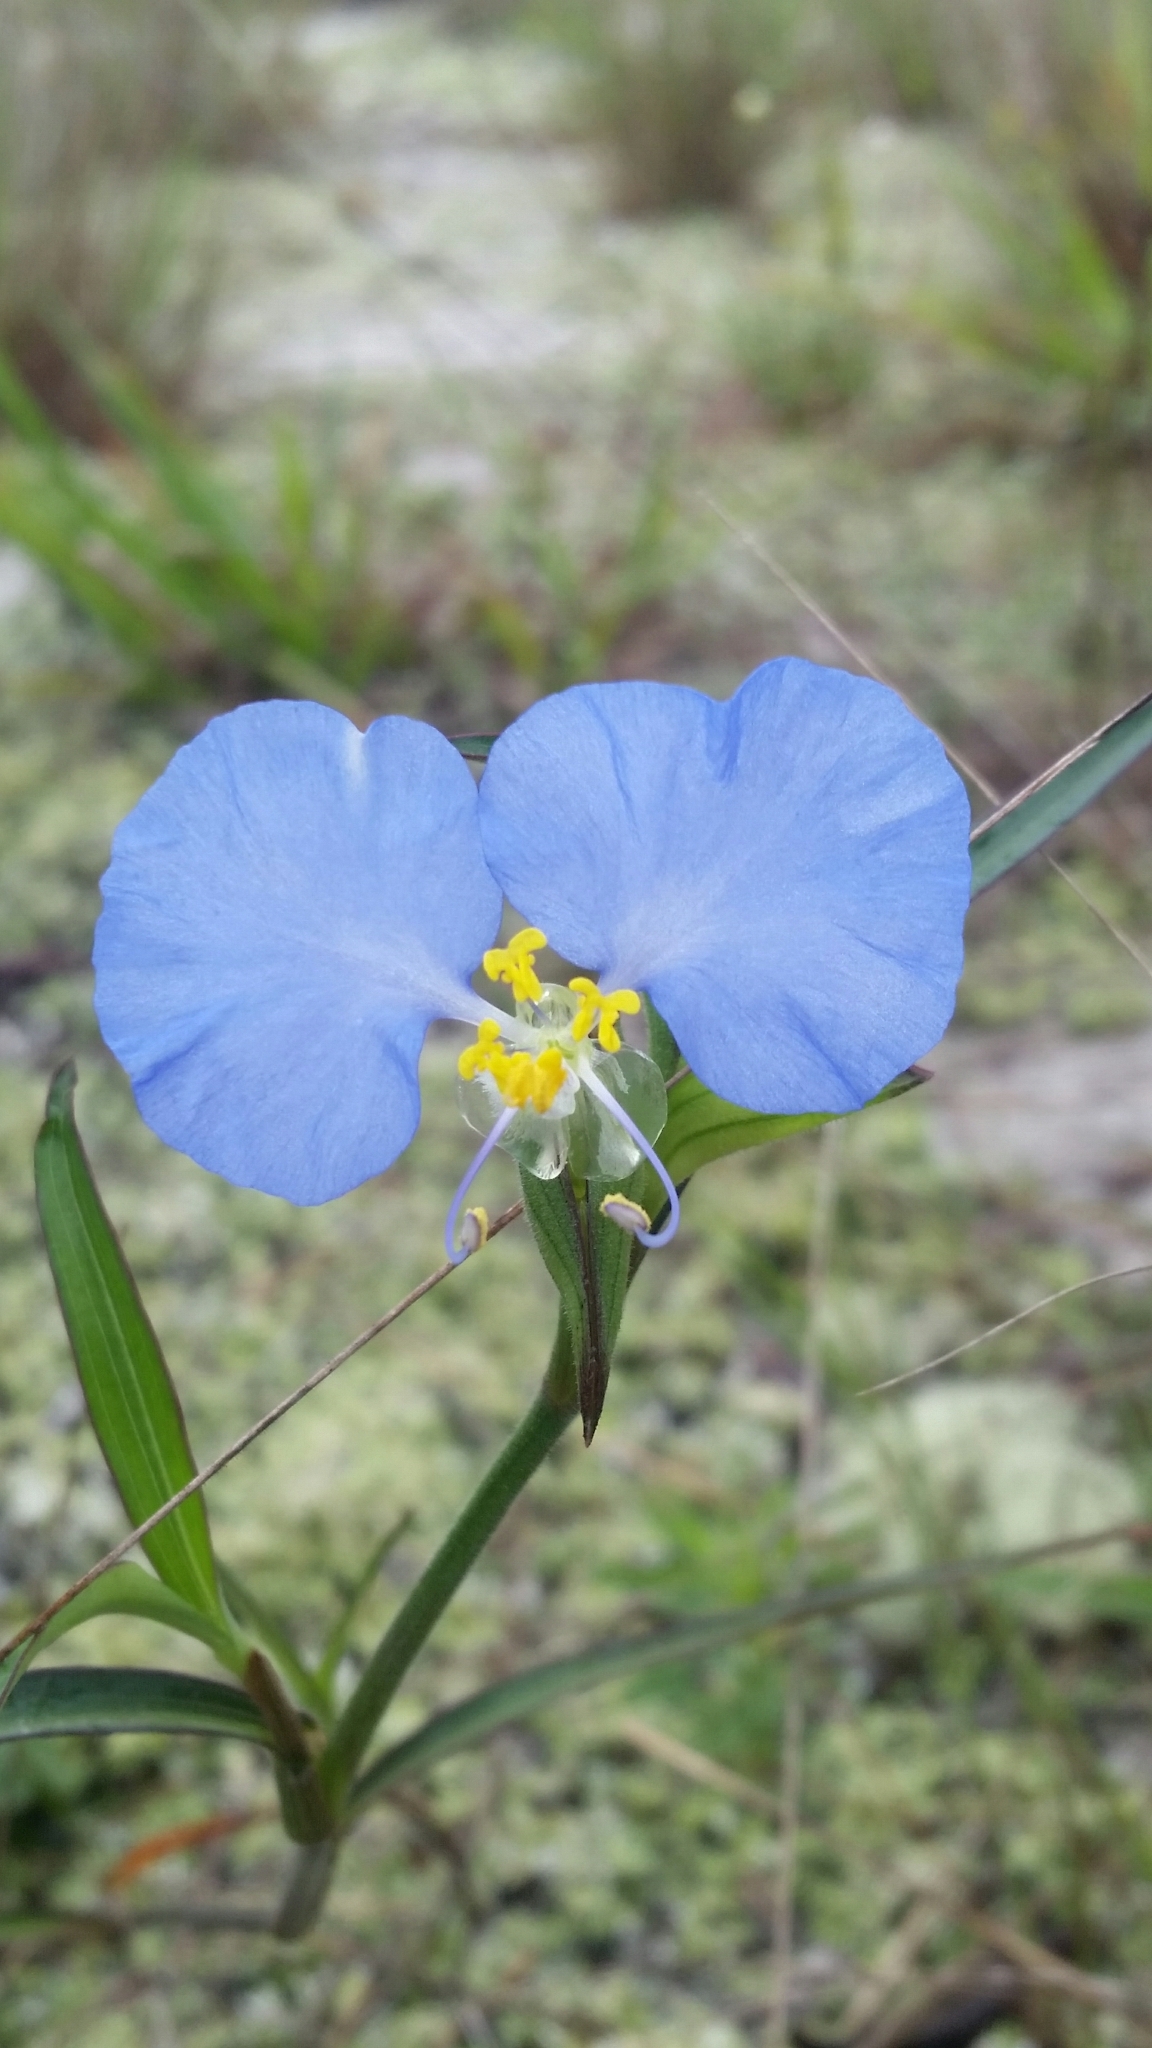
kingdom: Plantae
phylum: Tracheophyta
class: Liliopsida
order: Commelinales
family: Commelinaceae
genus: Commelina
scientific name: Commelina erecta
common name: Blousel blommetjie
